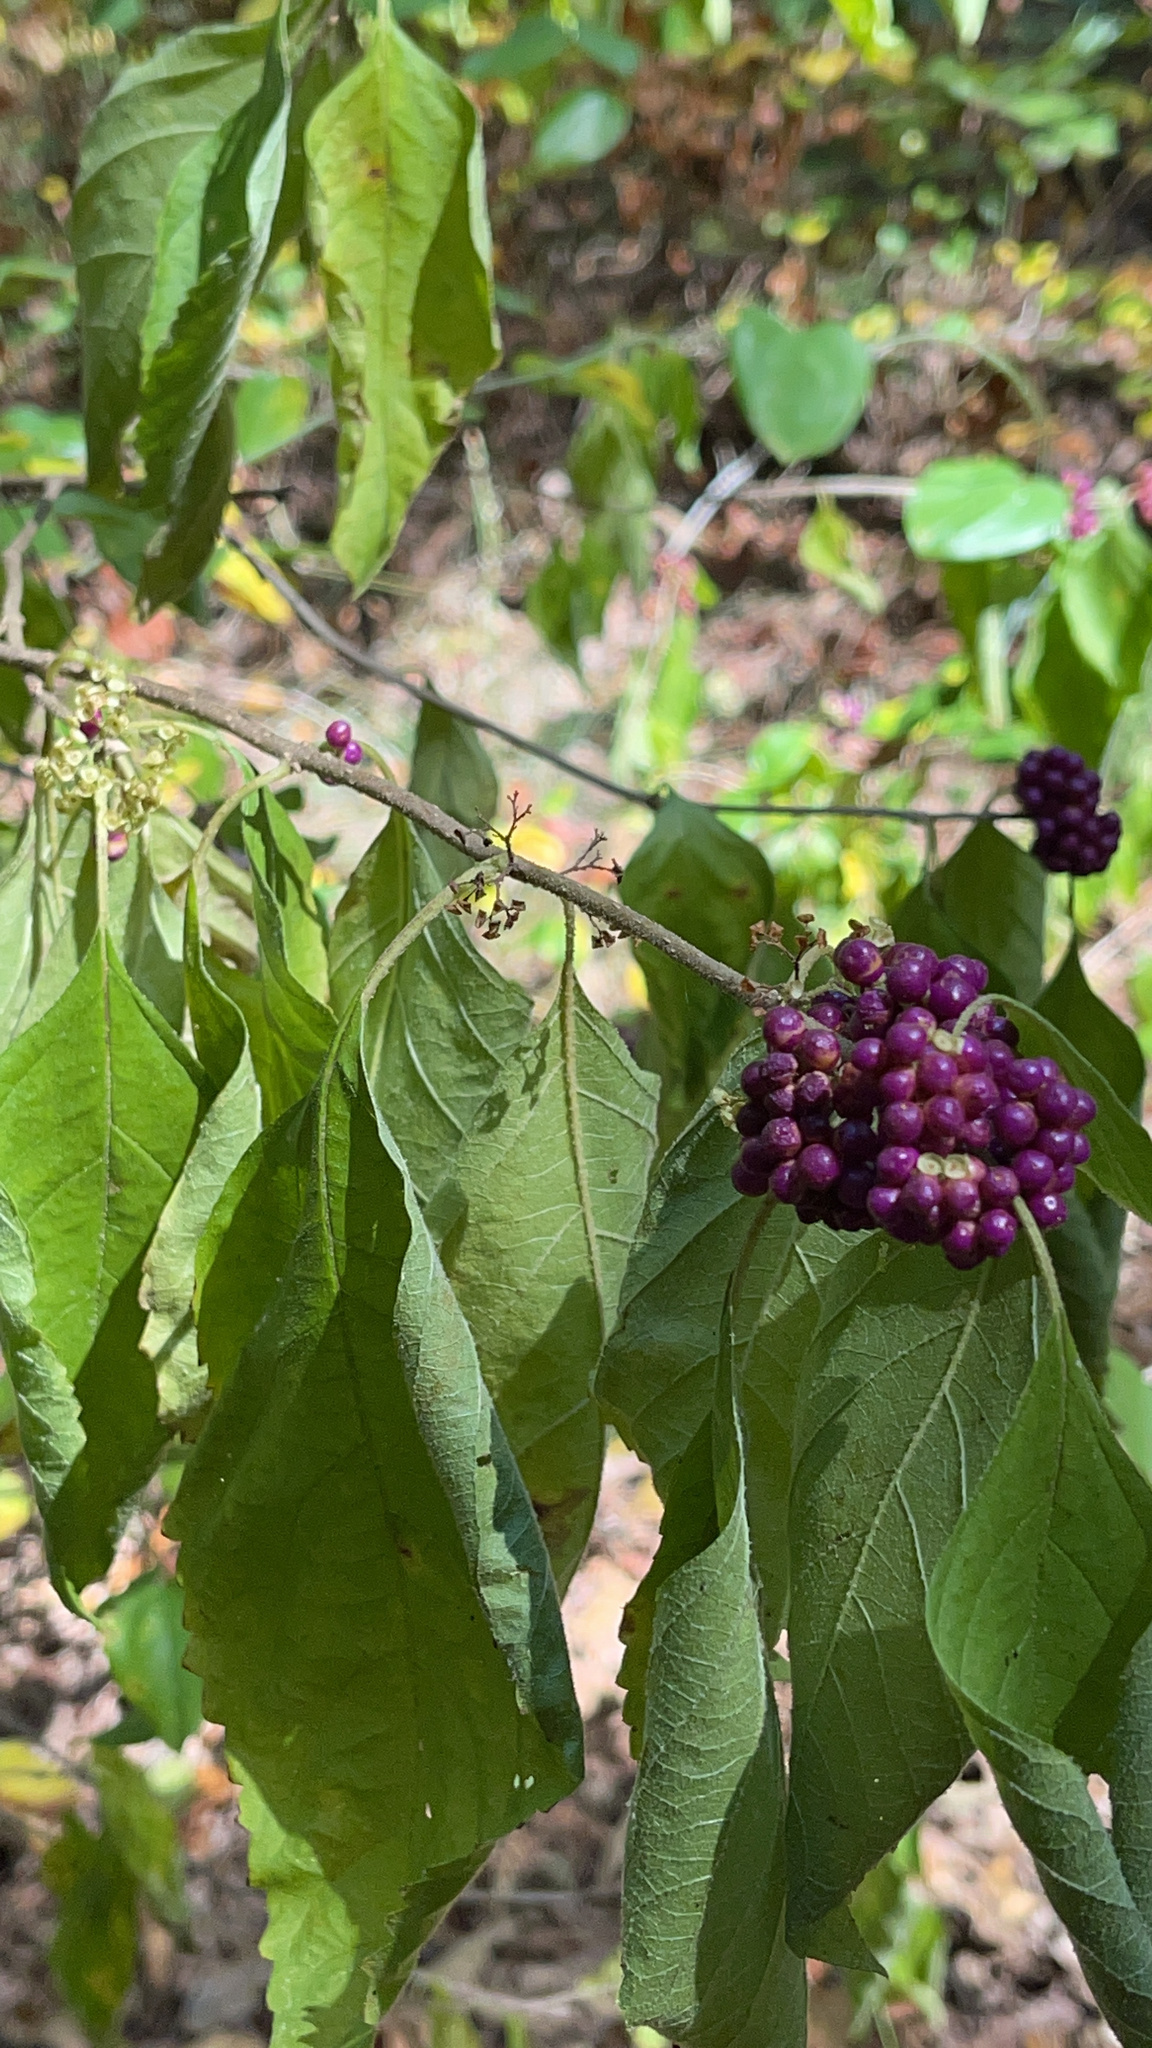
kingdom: Plantae
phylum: Tracheophyta
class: Magnoliopsida
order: Lamiales
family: Lamiaceae
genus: Callicarpa
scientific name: Callicarpa americana
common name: American beautyberry
